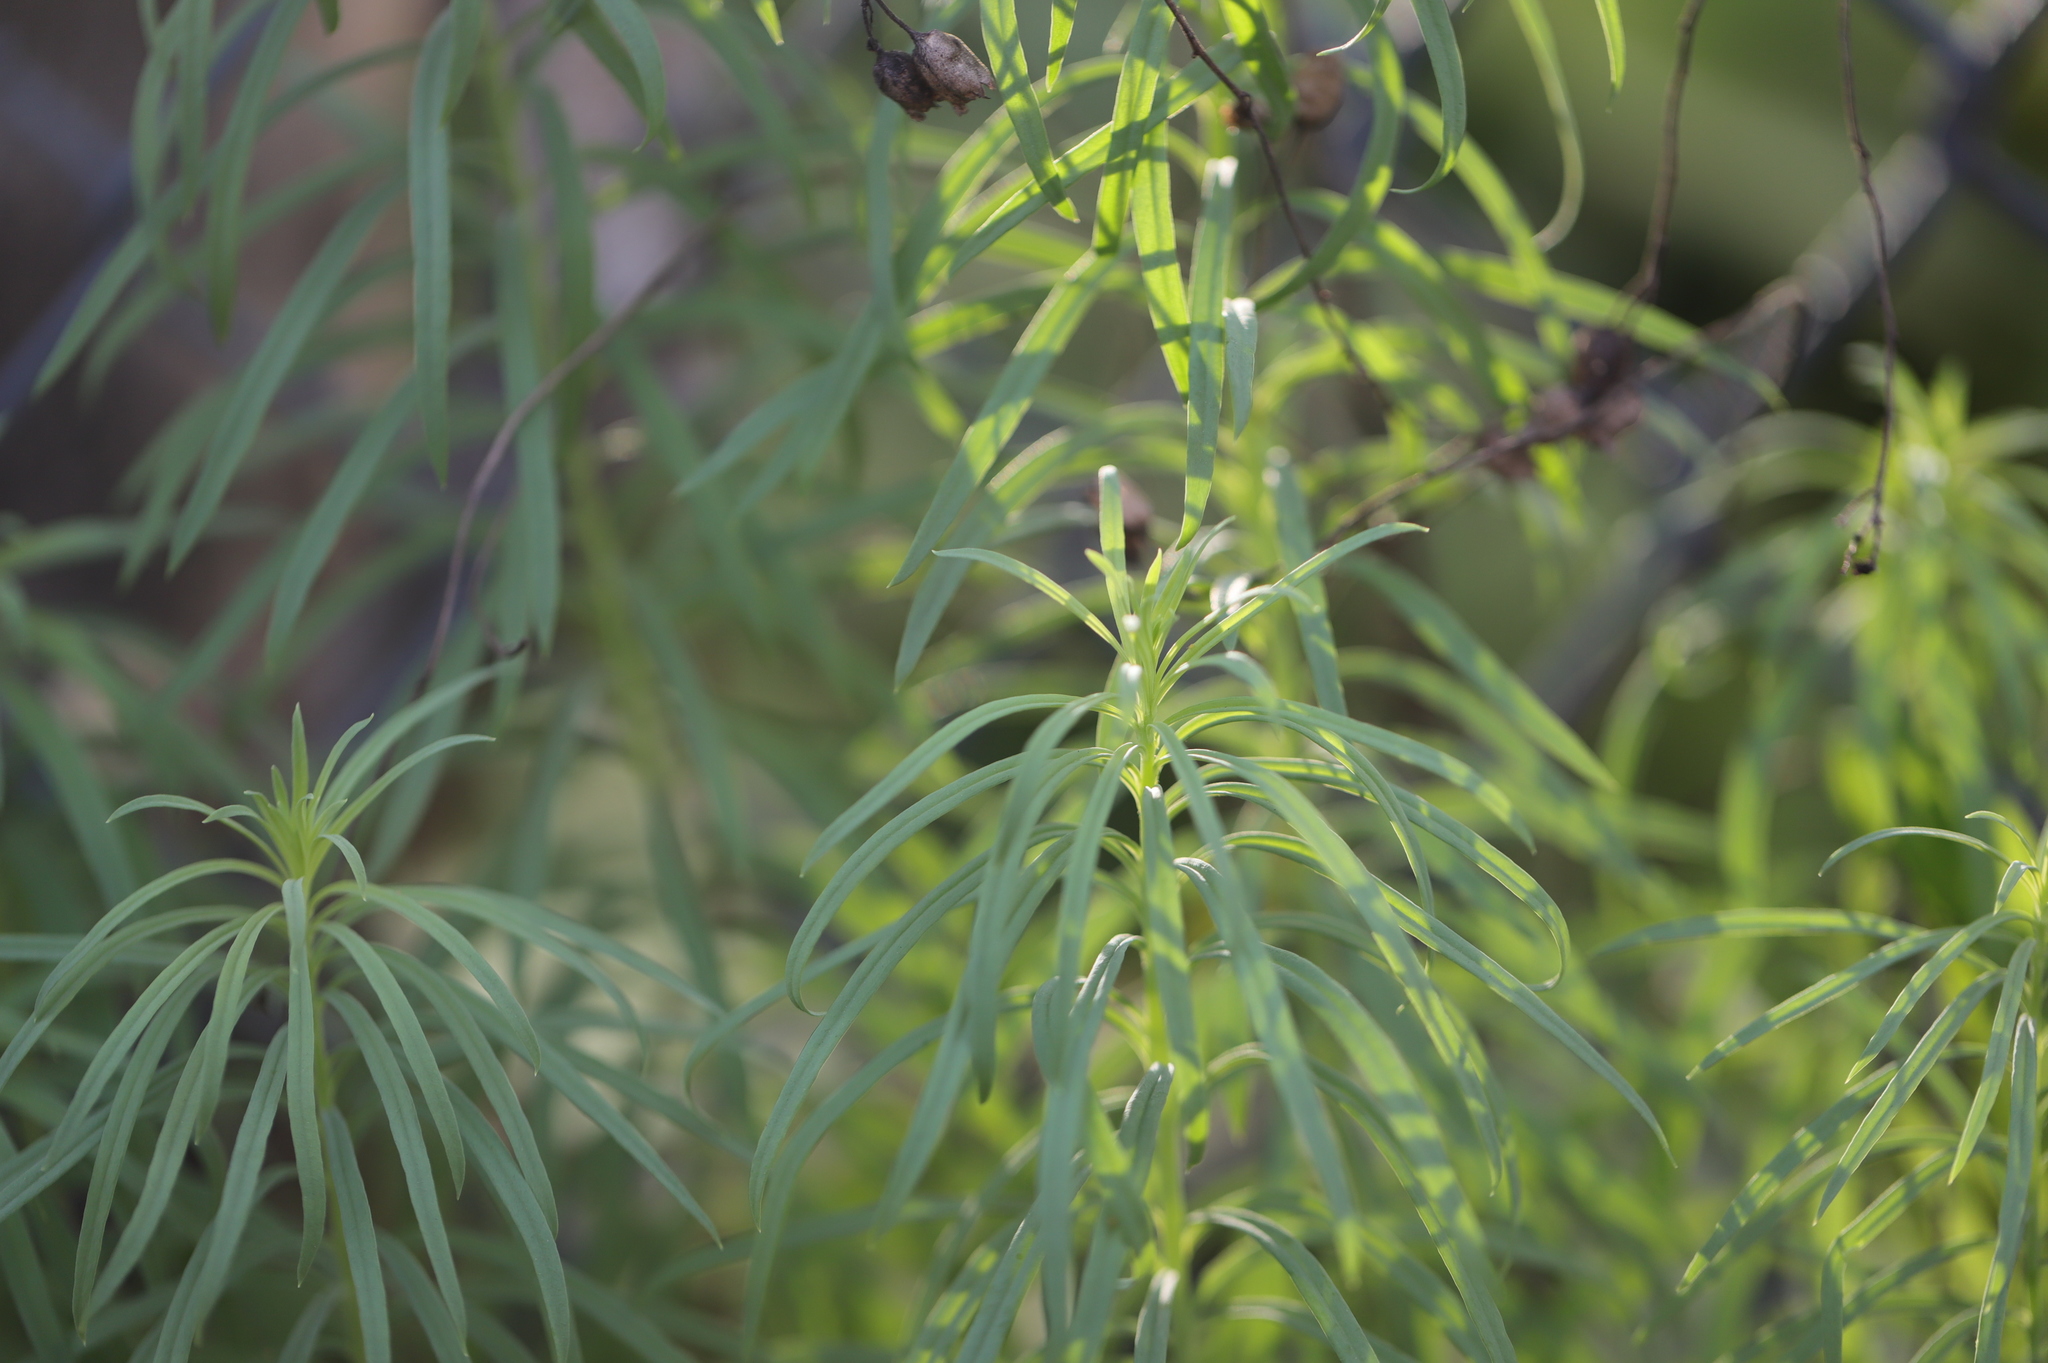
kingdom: Plantae
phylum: Tracheophyta
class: Magnoliopsida
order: Lamiales
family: Plantaginaceae
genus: Linaria
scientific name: Linaria vulgaris
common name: Butter and eggs
